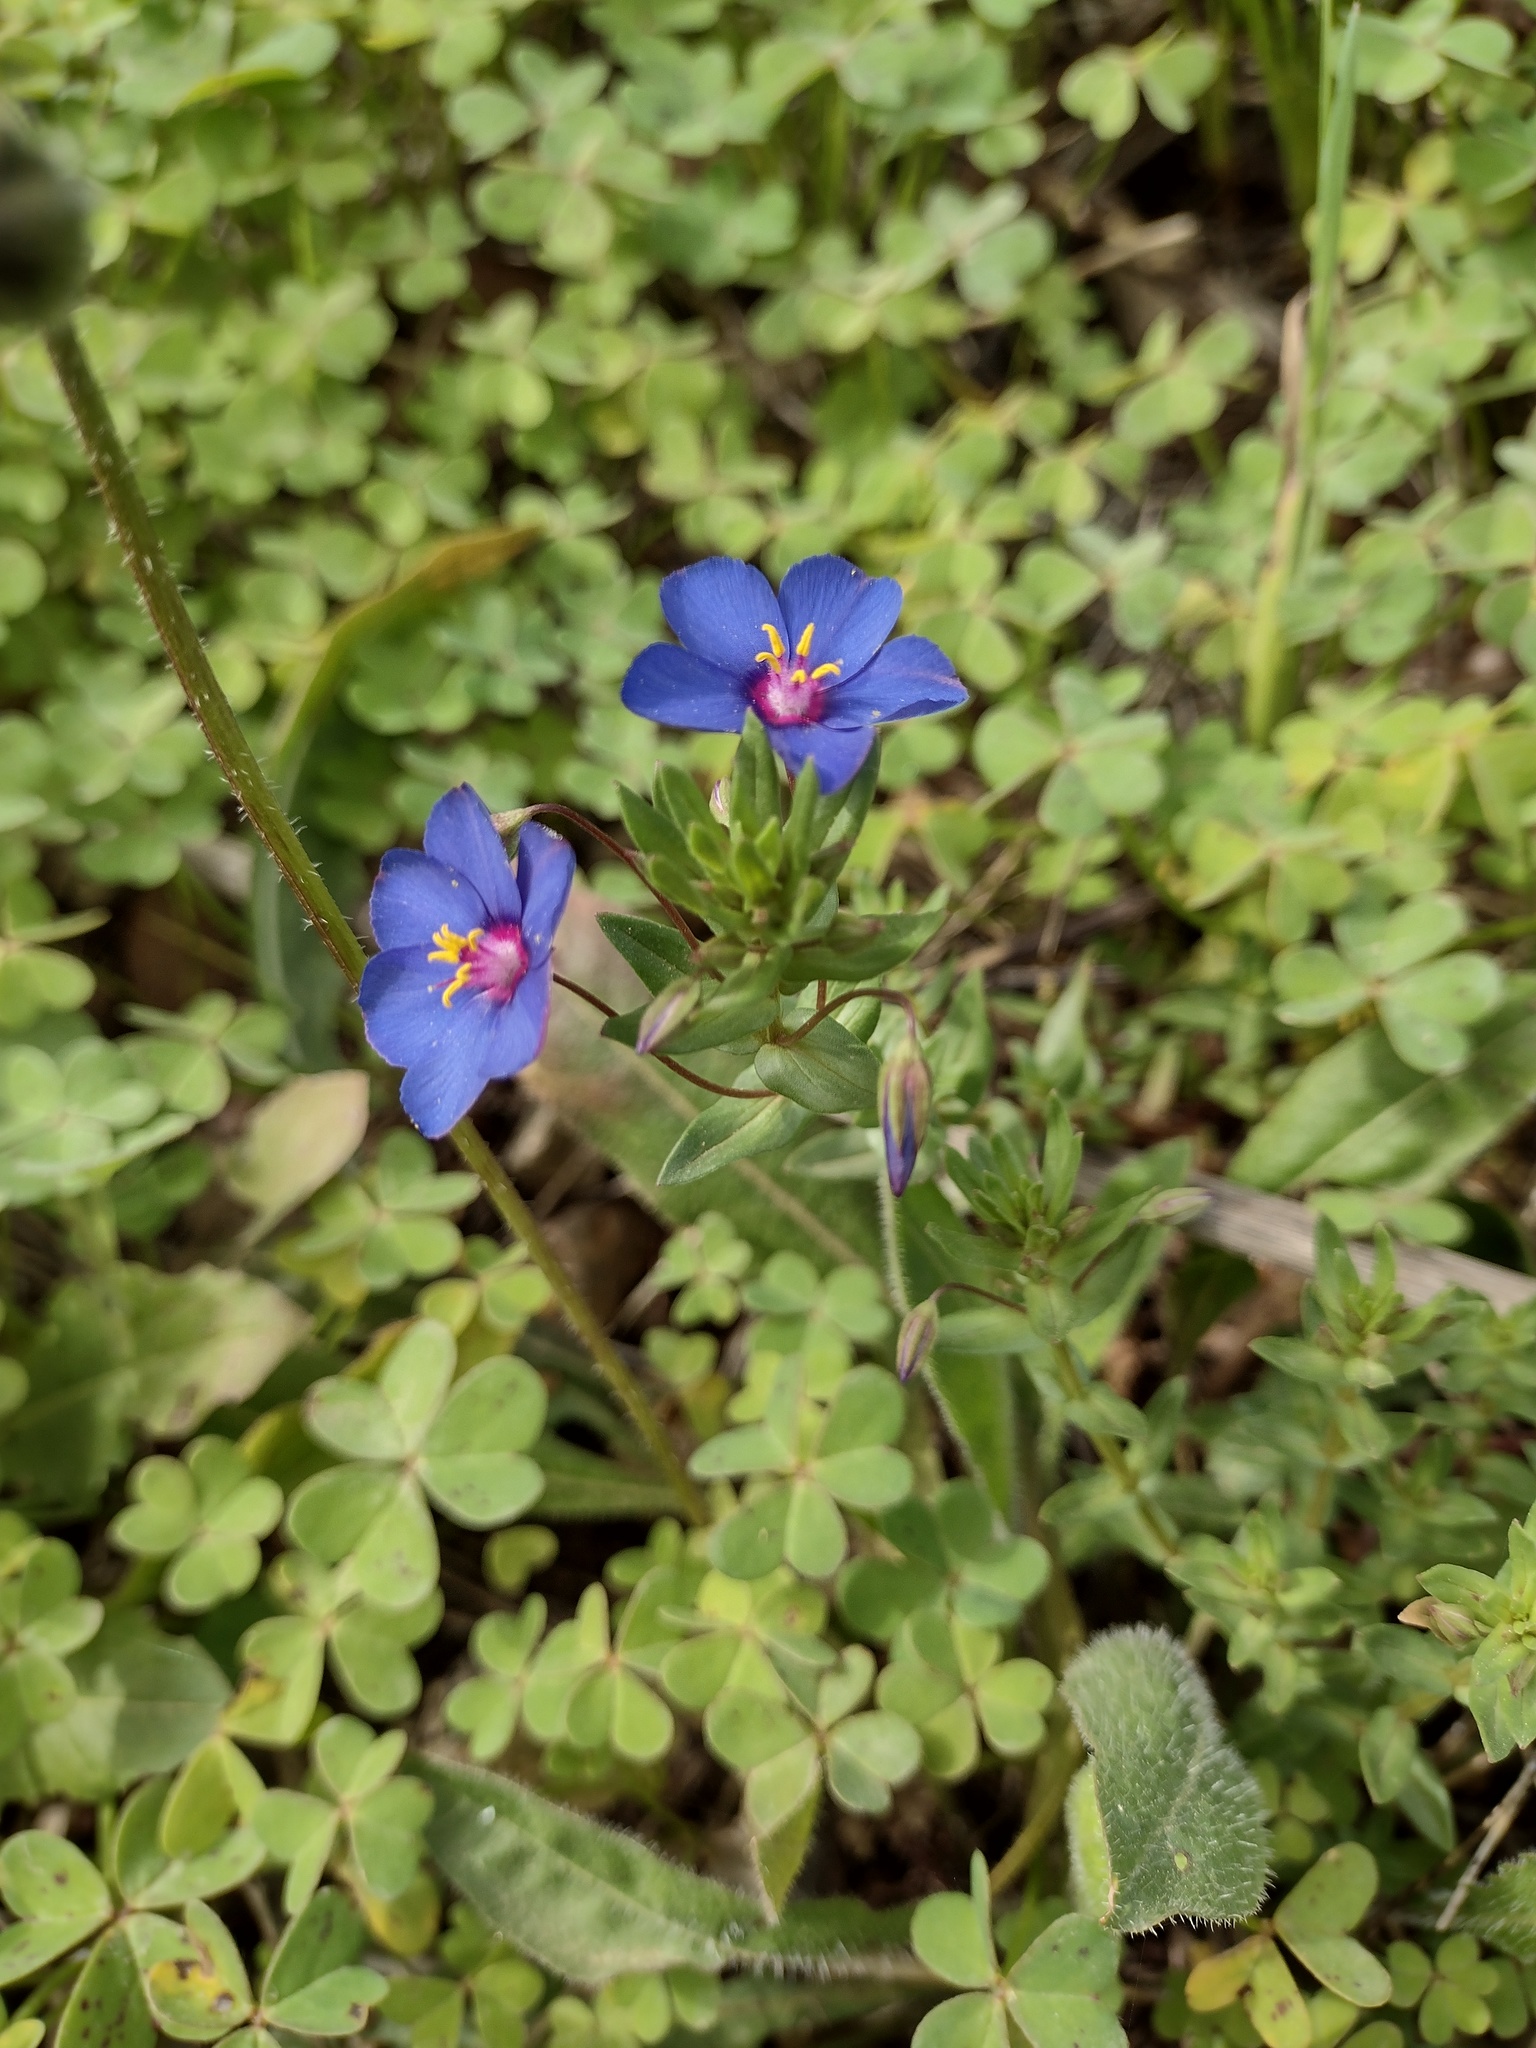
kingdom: Plantae
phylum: Tracheophyta
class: Magnoliopsida
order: Ericales
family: Primulaceae
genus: Lysimachia
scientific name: Lysimachia monelli
